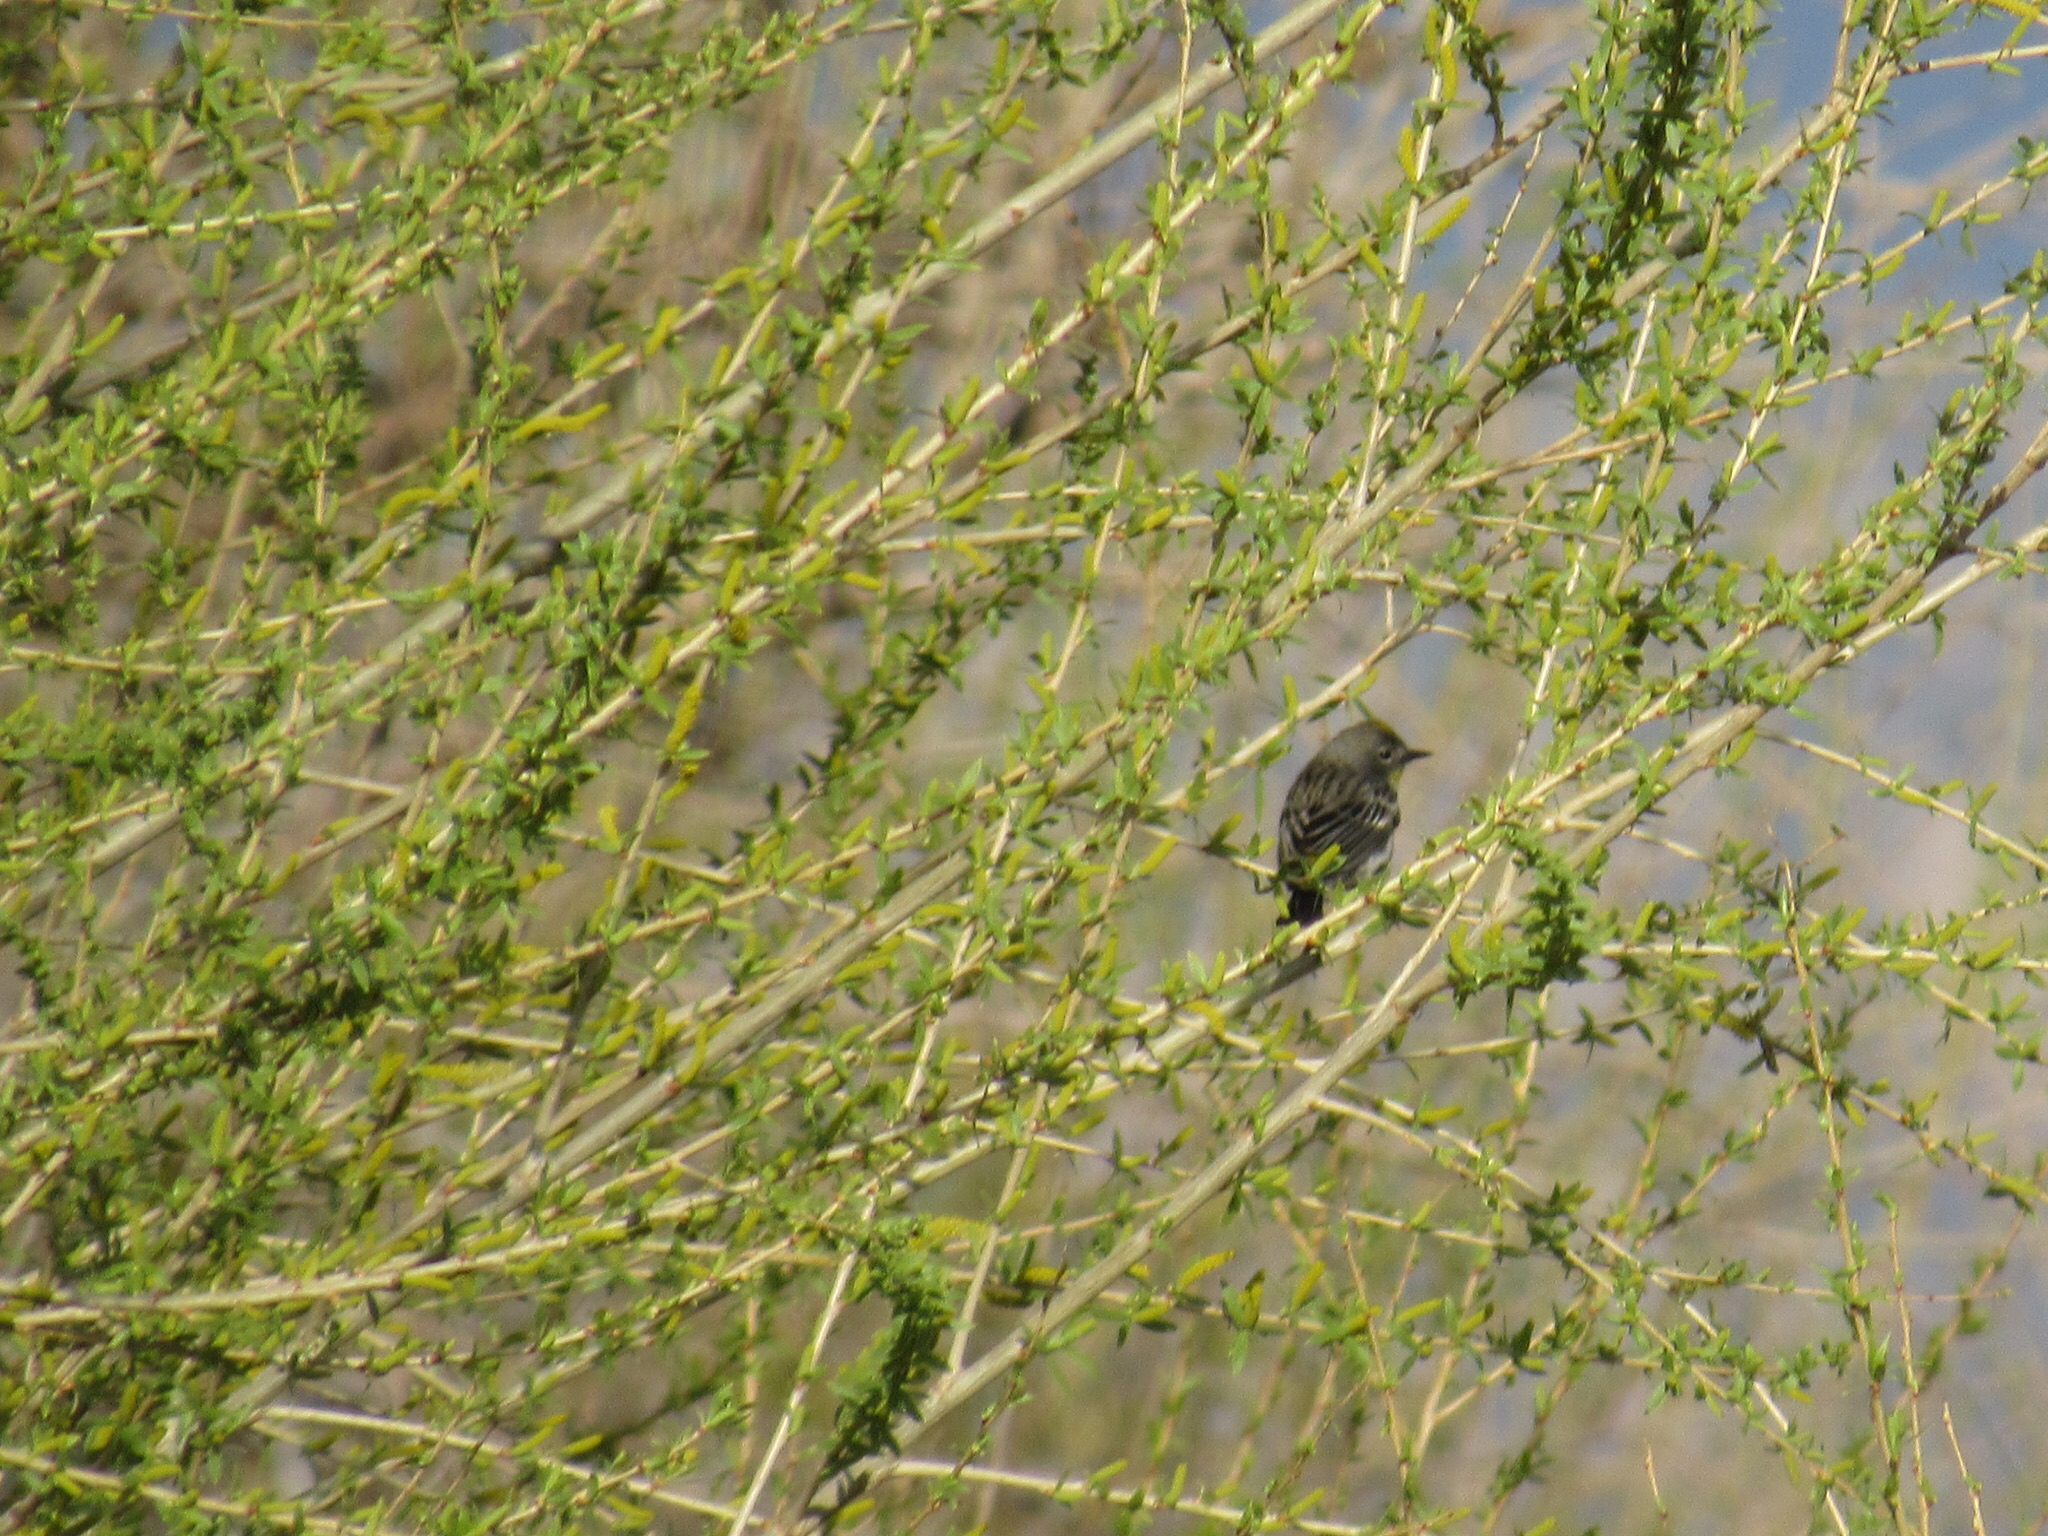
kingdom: Animalia
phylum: Chordata
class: Aves
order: Passeriformes
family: Parulidae
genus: Setophaga
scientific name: Setophaga auduboni
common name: Audubon's warbler
